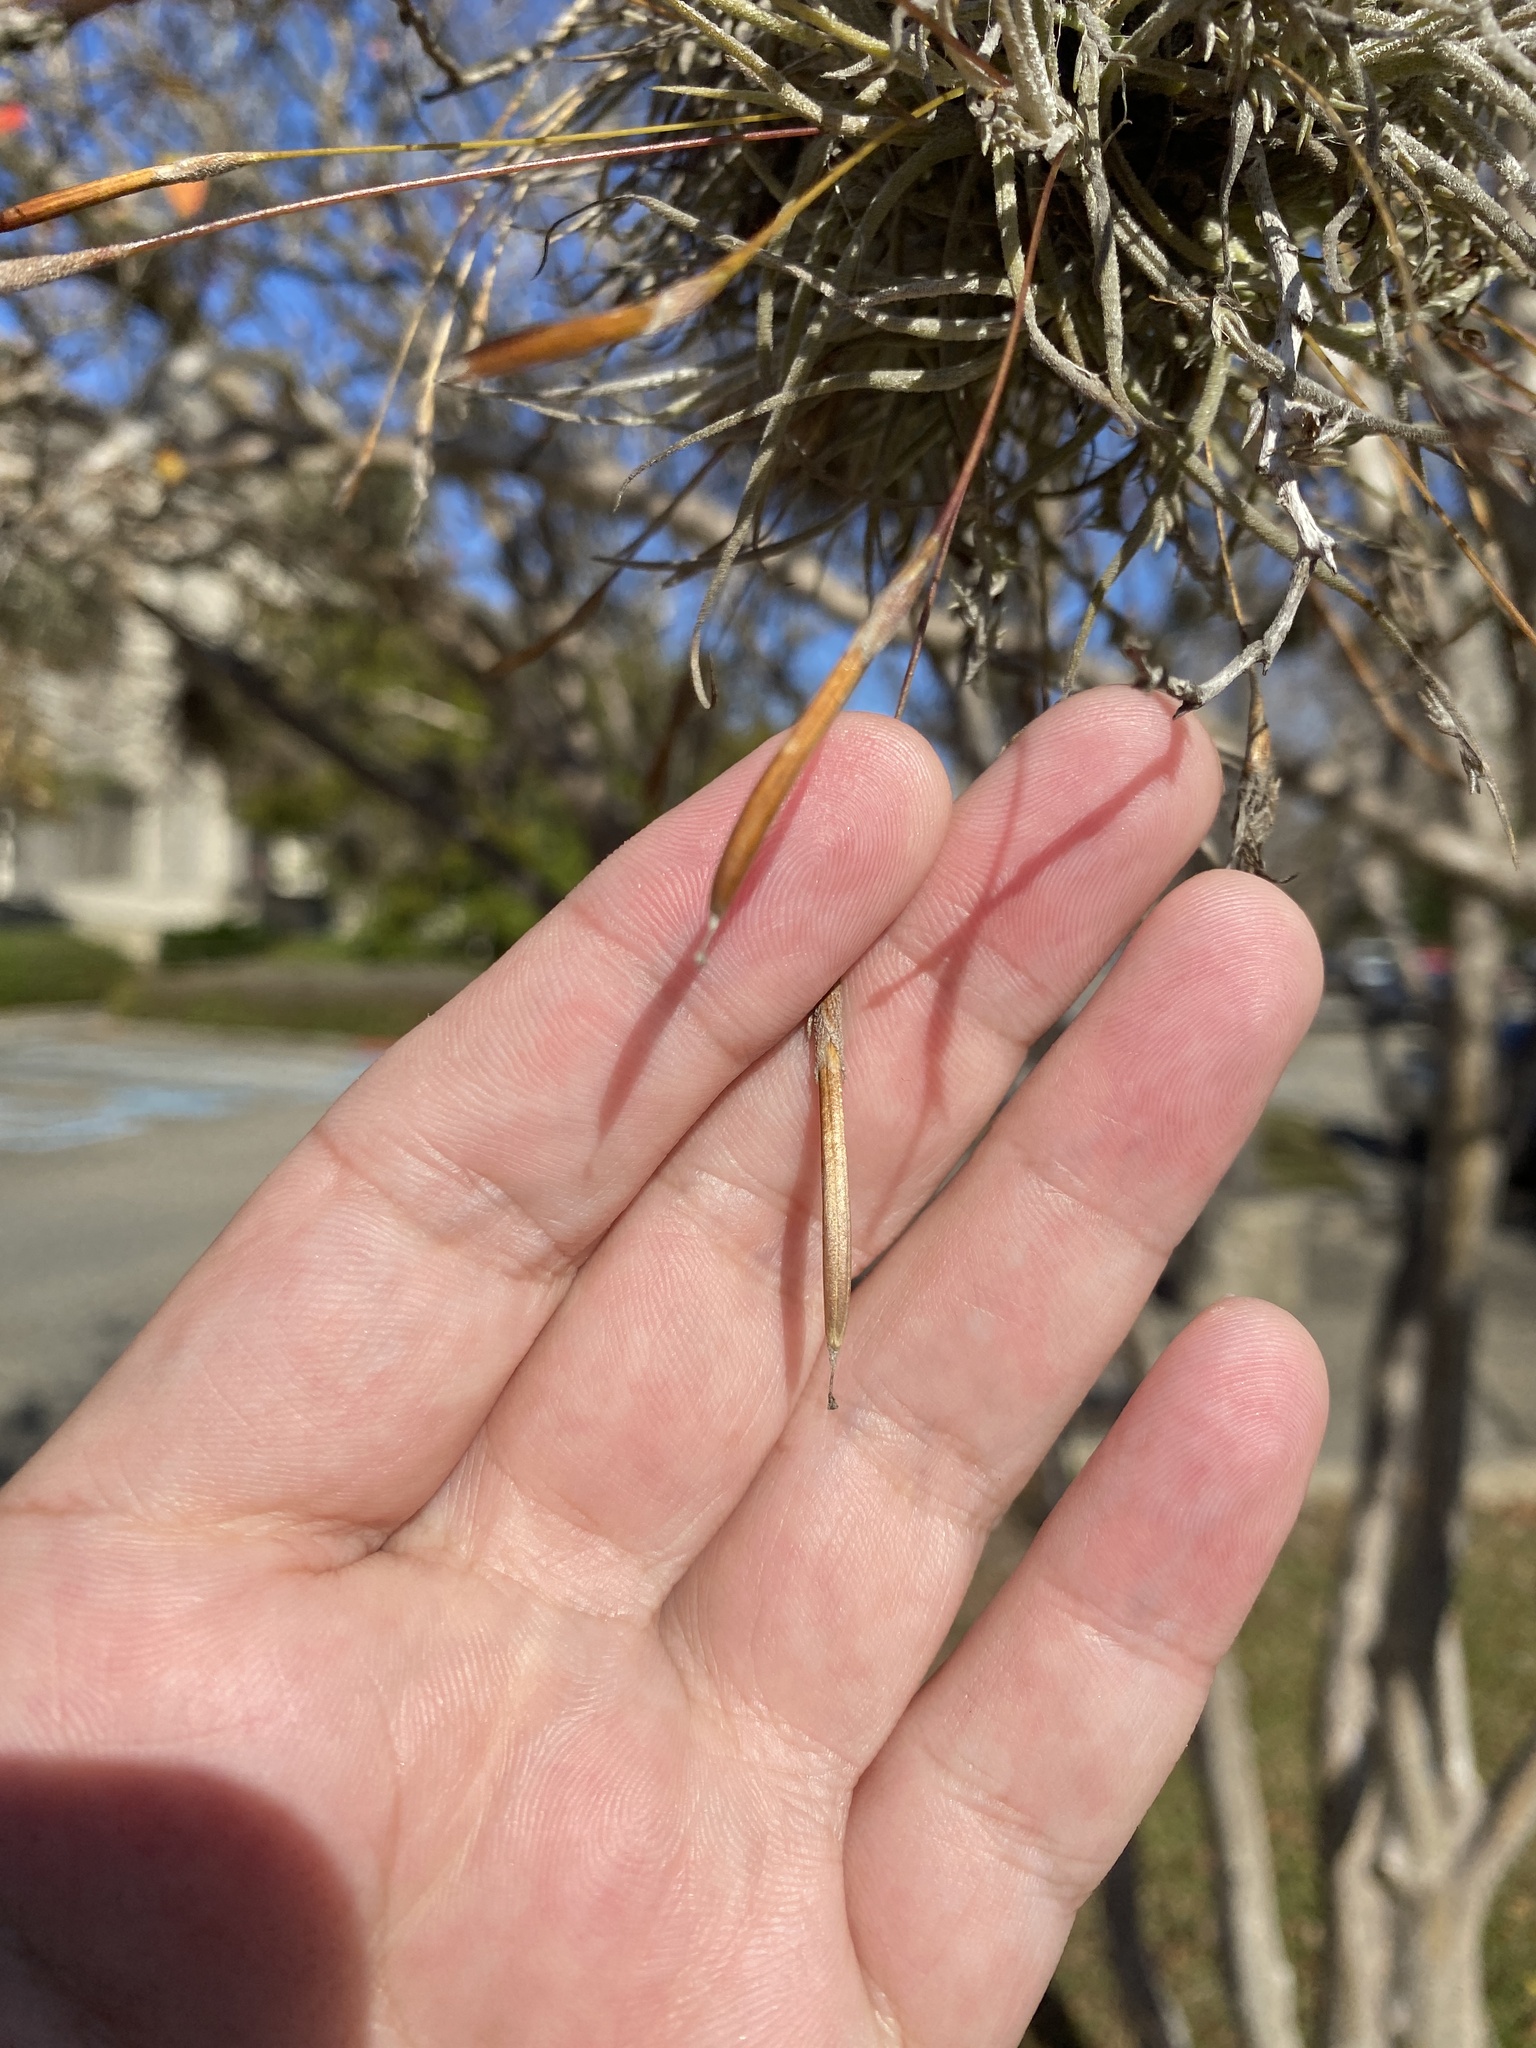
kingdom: Plantae
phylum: Tracheophyta
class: Liliopsida
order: Poales
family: Bromeliaceae
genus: Tillandsia
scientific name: Tillandsia recurvata
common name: Small ballmoss
